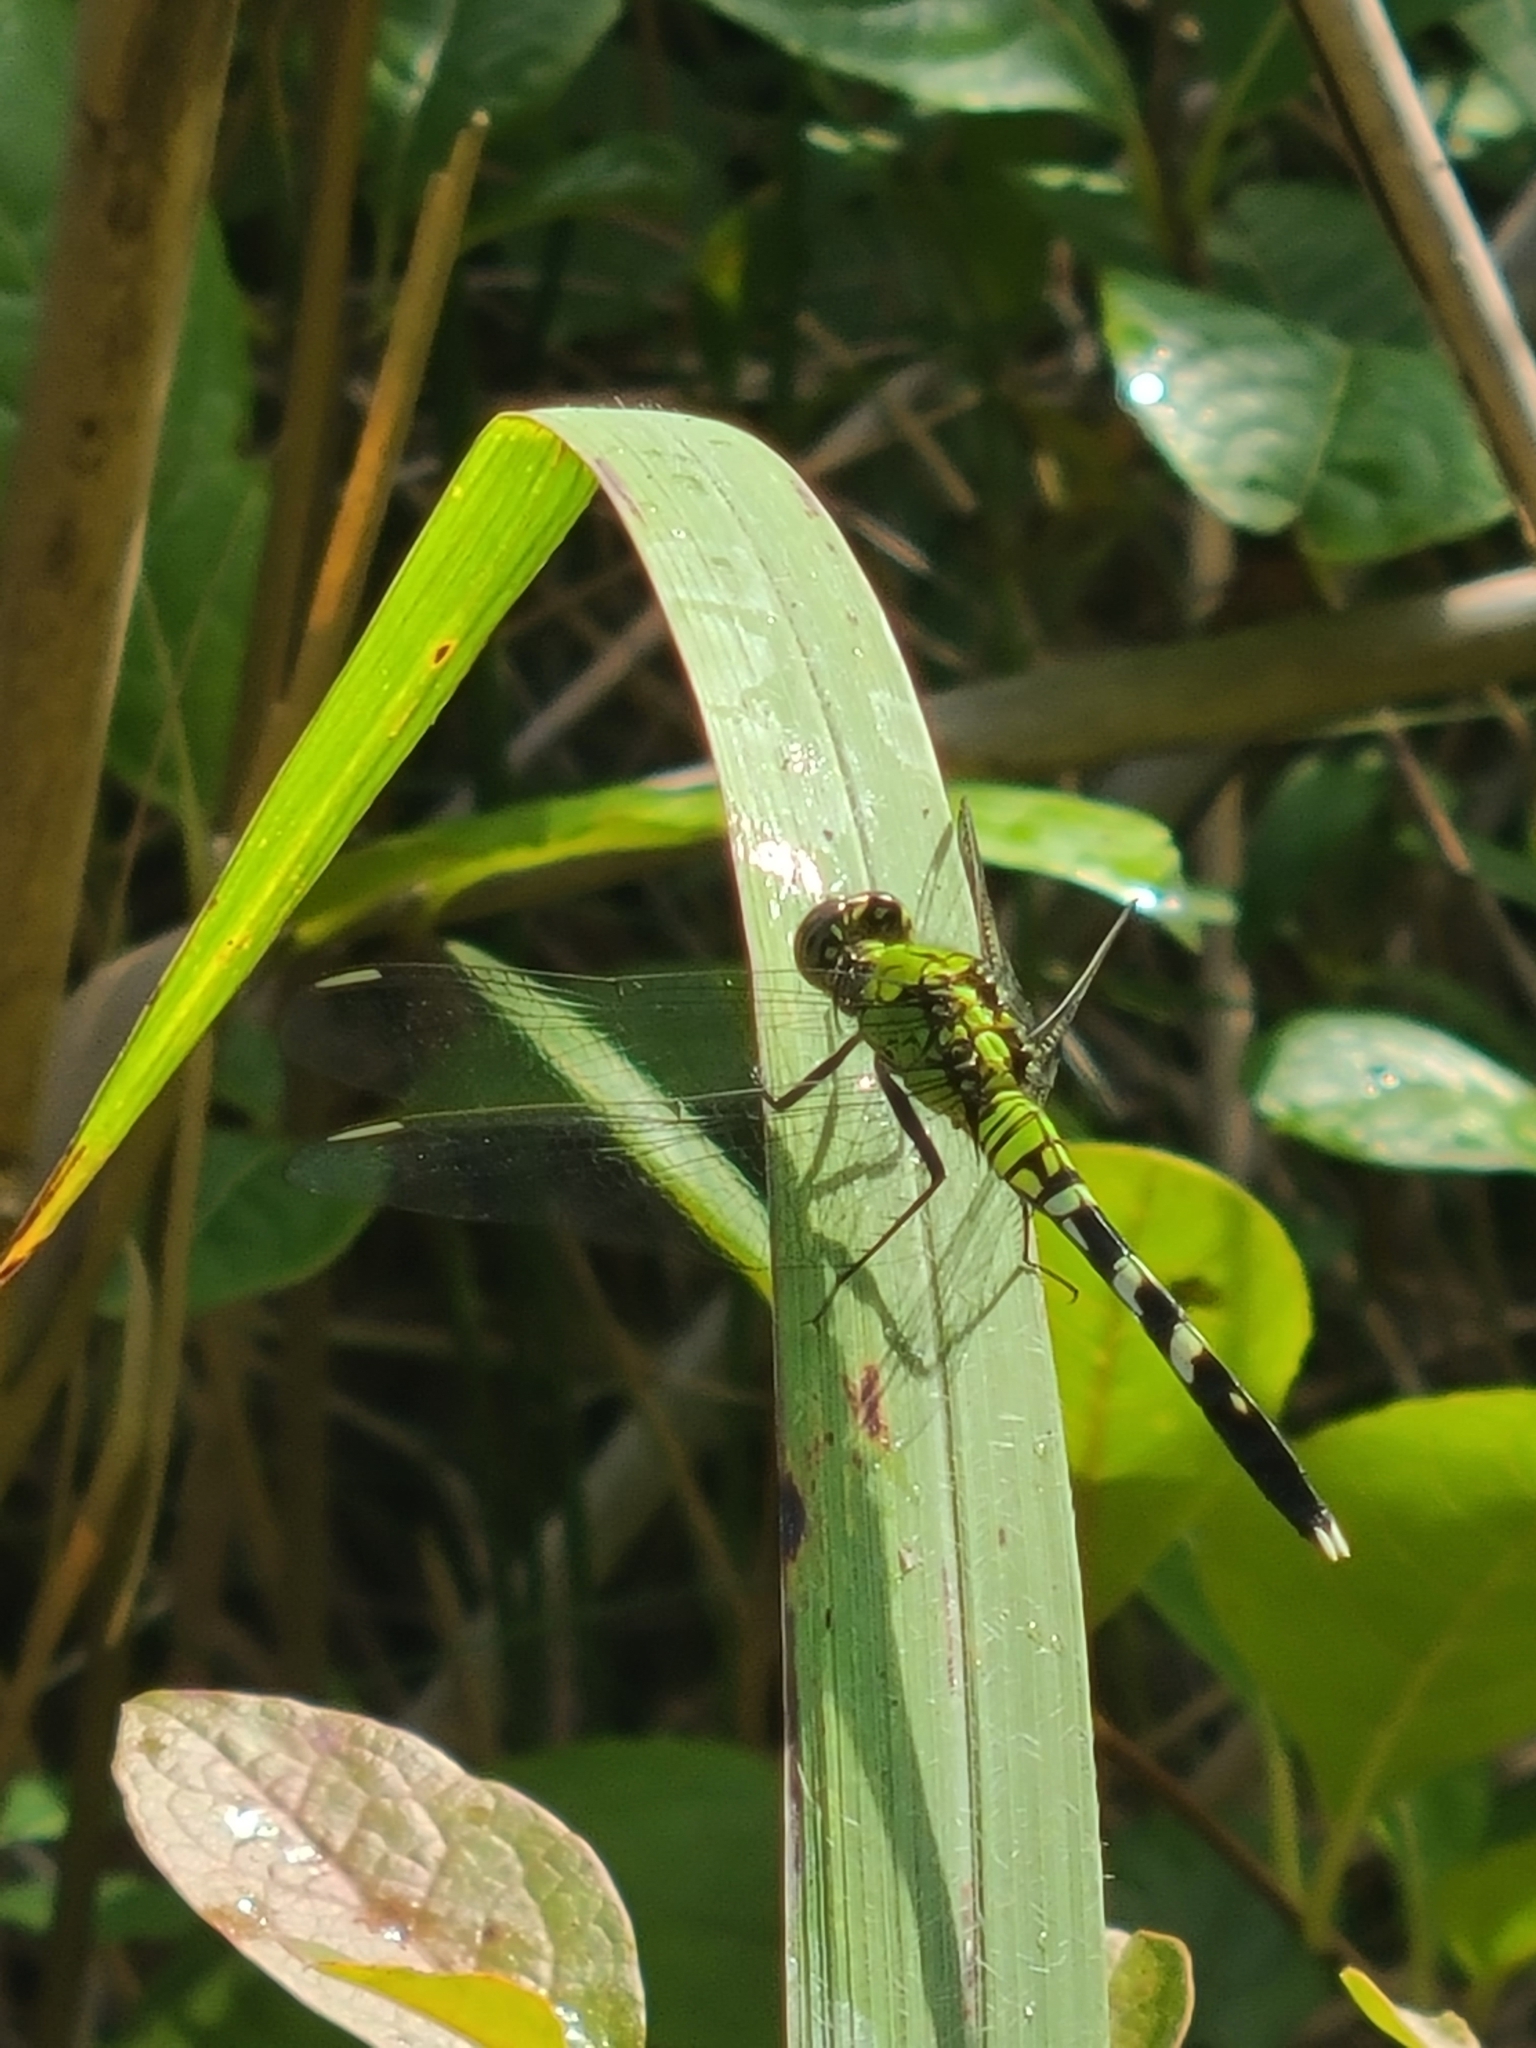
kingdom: Animalia
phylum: Arthropoda
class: Insecta
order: Odonata
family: Libellulidae
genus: Erythemis
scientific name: Erythemis simplicicollis
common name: Eastern pondhawk
